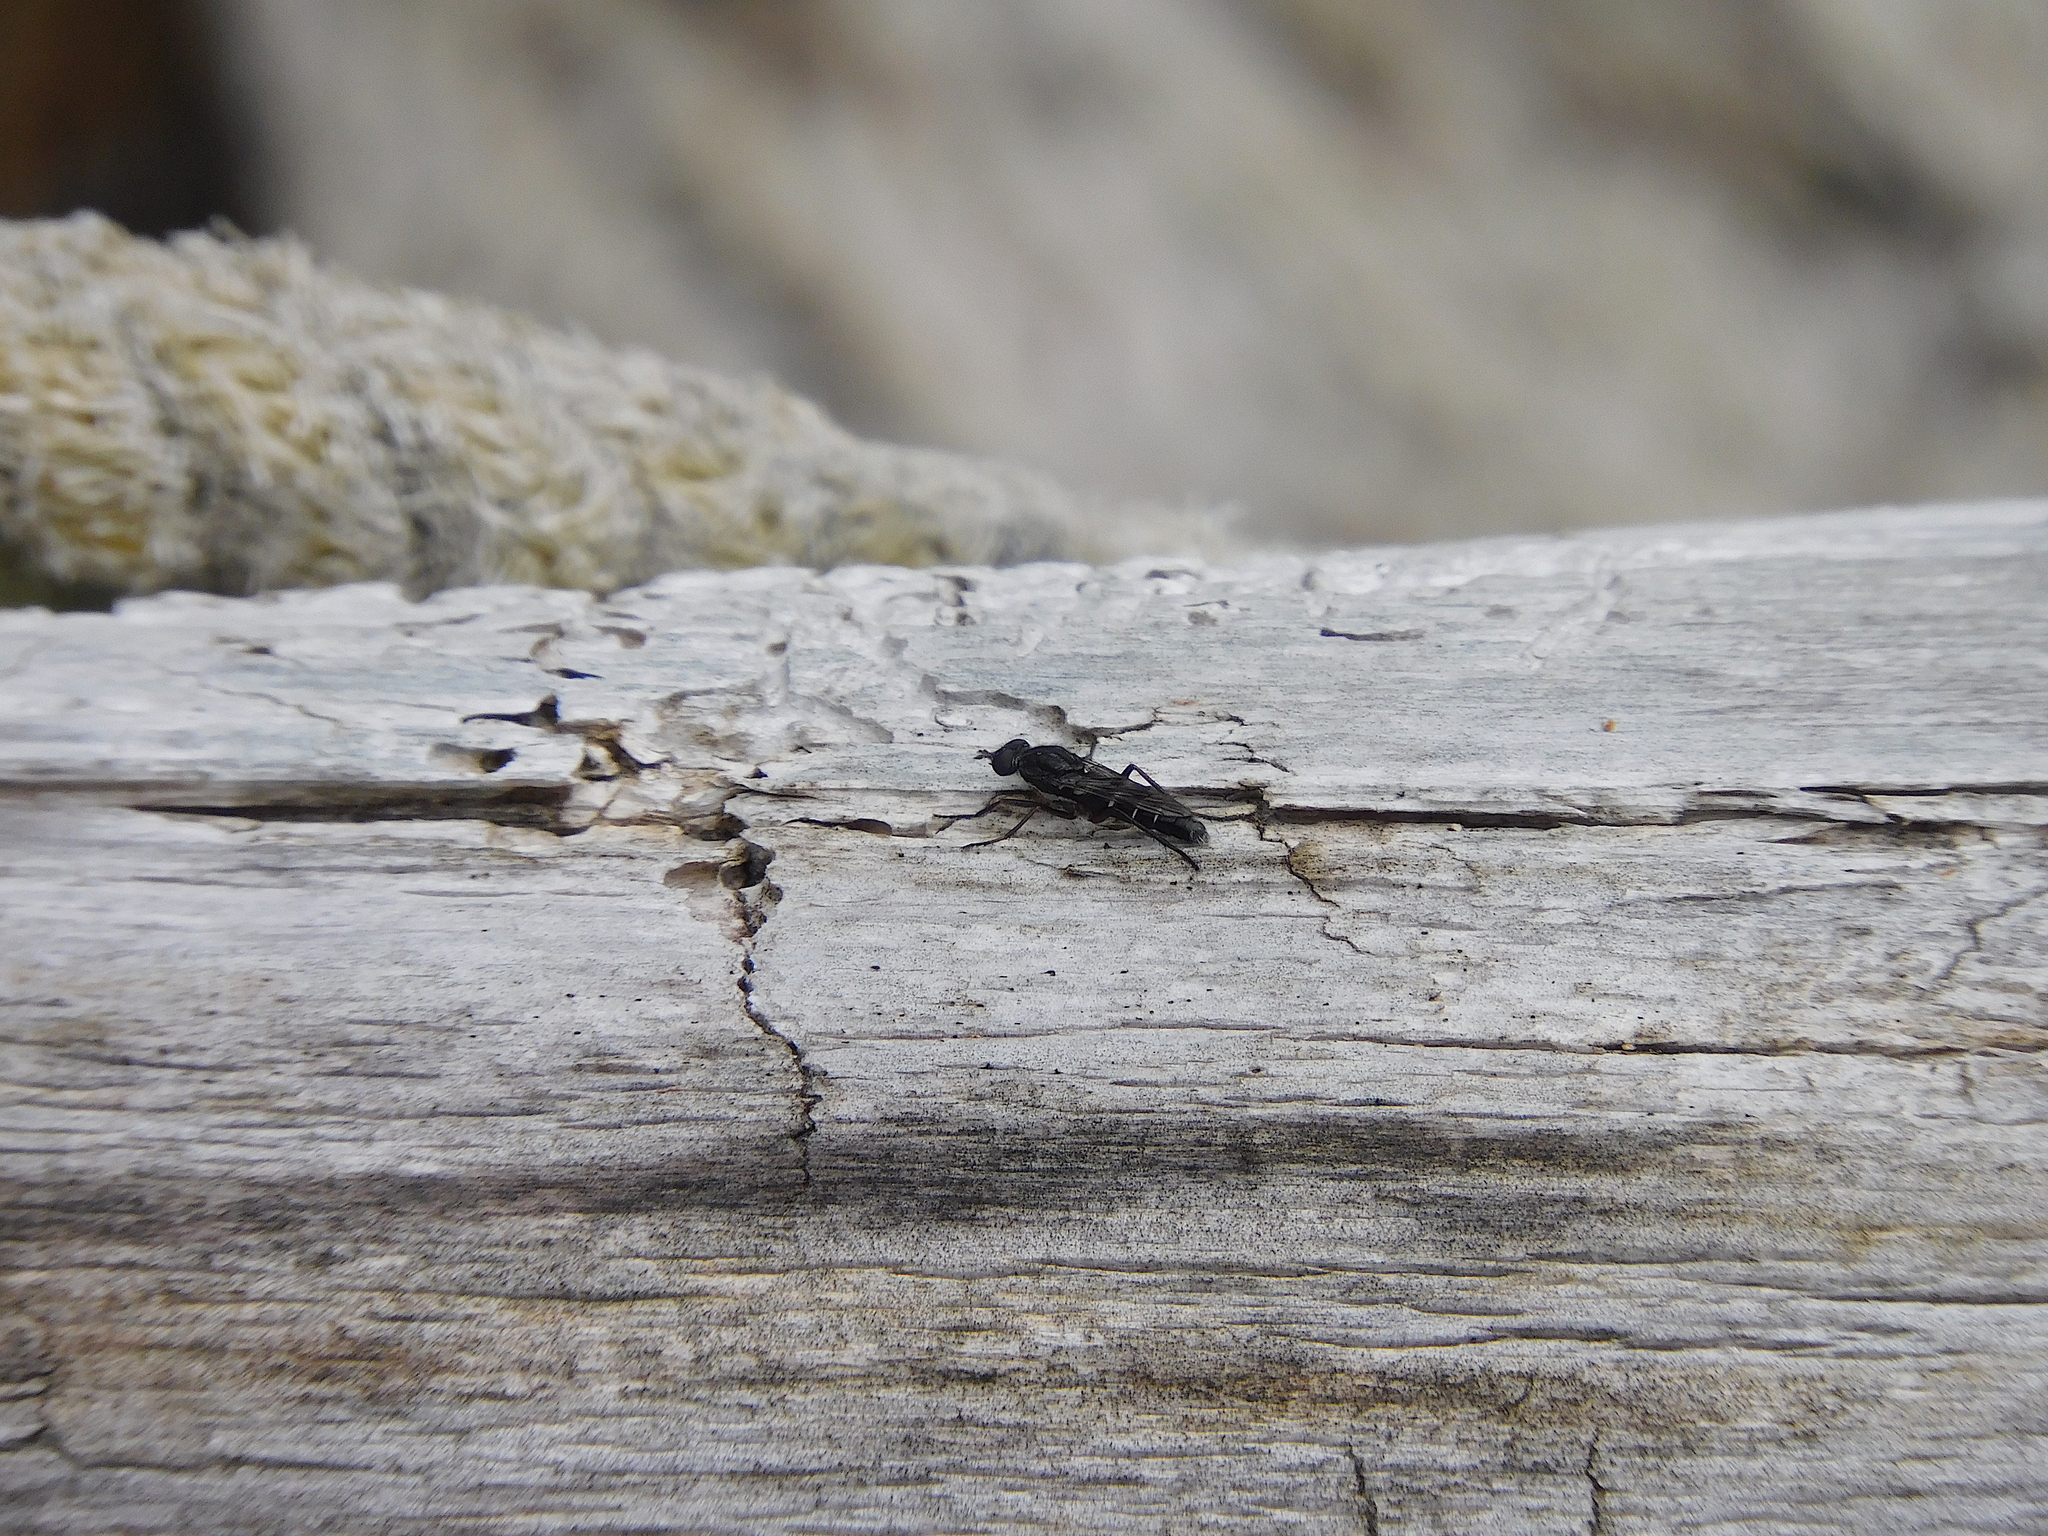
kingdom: Animalia
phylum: Arthropoda
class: Insecta
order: Diptera
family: Therevidae
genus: Bonjeania
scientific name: Bonjeania actuosa
